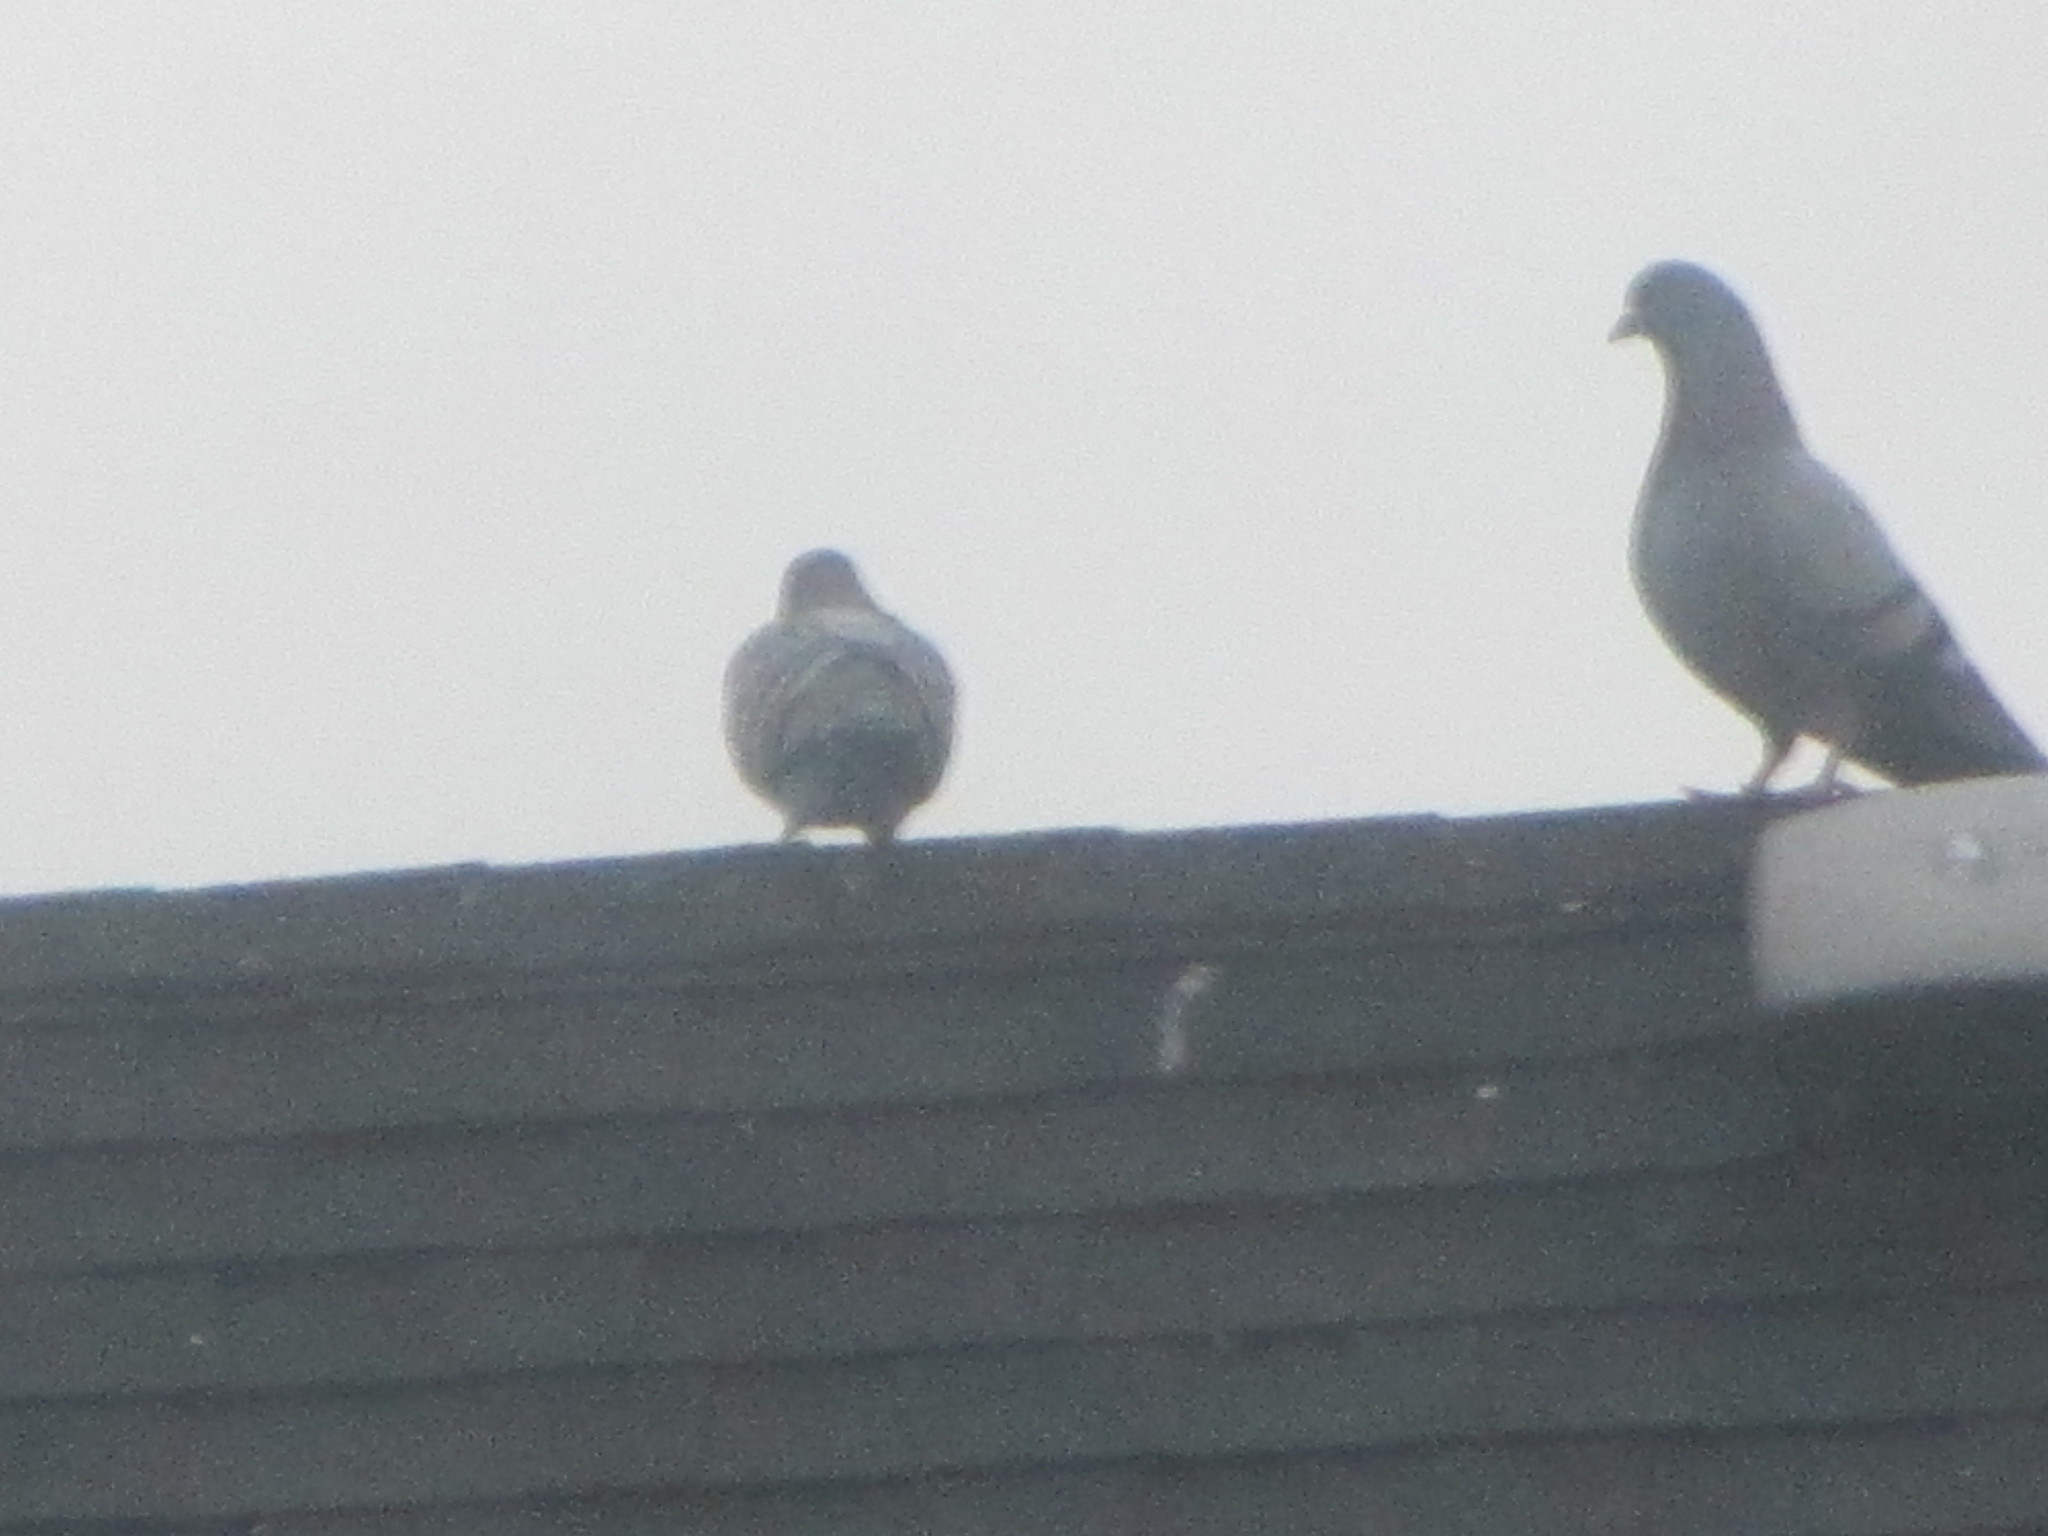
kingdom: Animalia
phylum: Chordata
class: Aves
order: Columbiformes
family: Columbidae
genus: Columba
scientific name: Columba livia
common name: Rock pigeon
